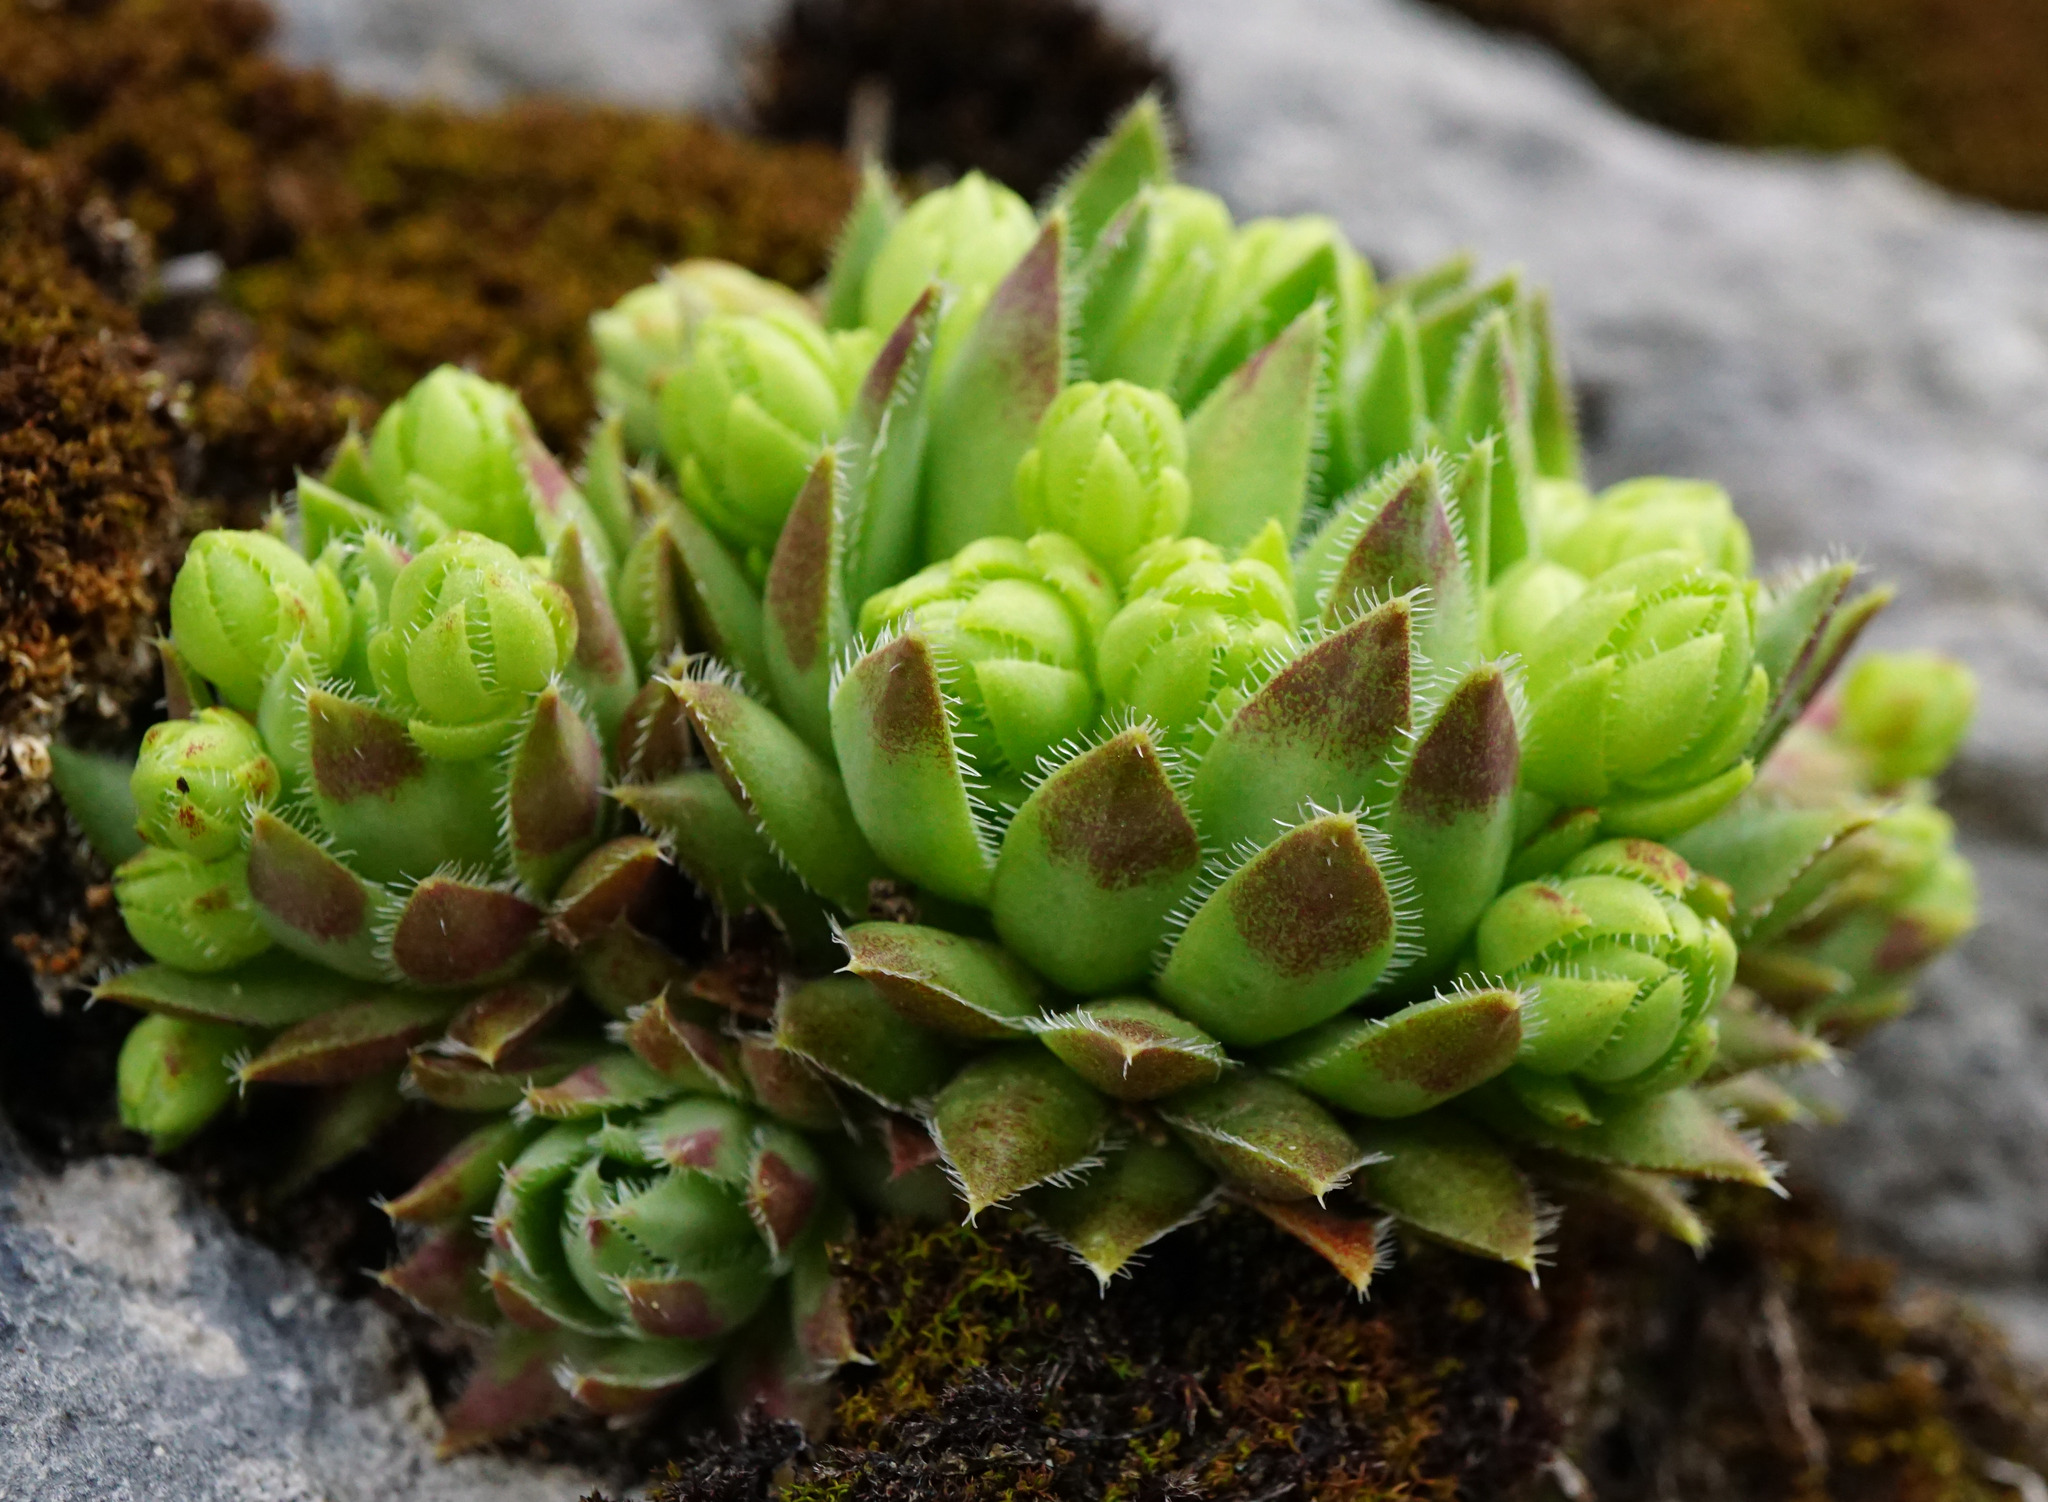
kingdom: Plantae
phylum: Tracheophyta
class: Magnoliopsida
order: Saxifragales
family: Crassulaceae
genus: Sempervivum
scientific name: Sempervivum globiferum
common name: Rolling hen-and-chicks
